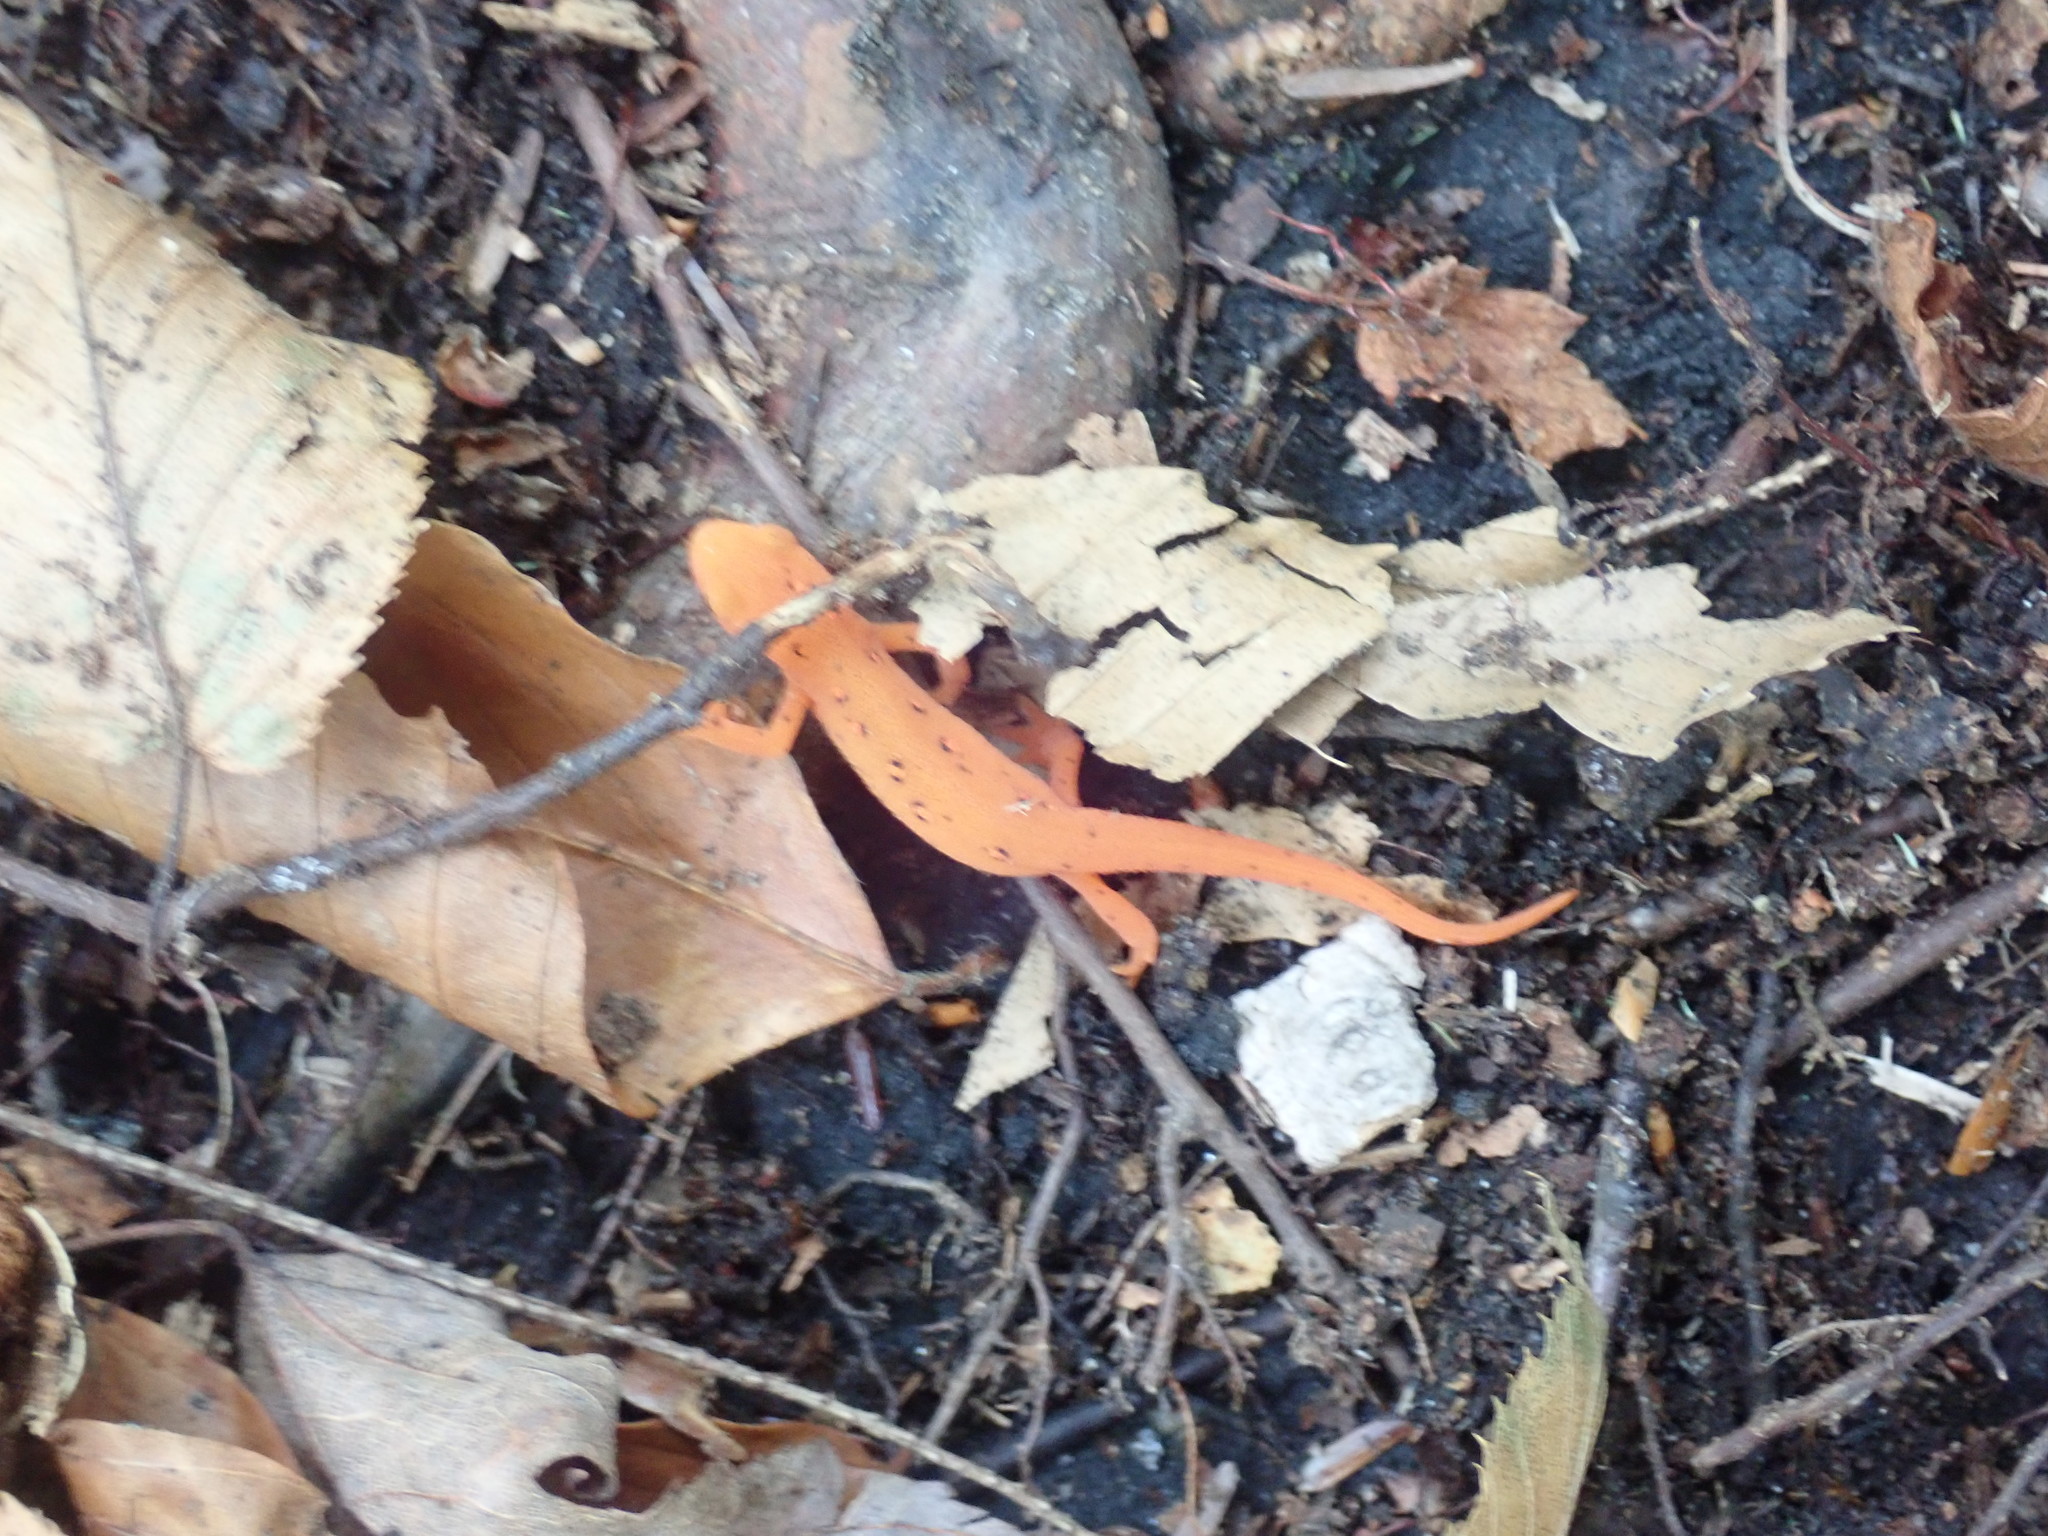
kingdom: Animalia
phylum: Chordata
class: Amphibia
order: Caudata
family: Salamandridae
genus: Notophthalmus
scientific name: Notophthalmus viridescens
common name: Eastern newt
